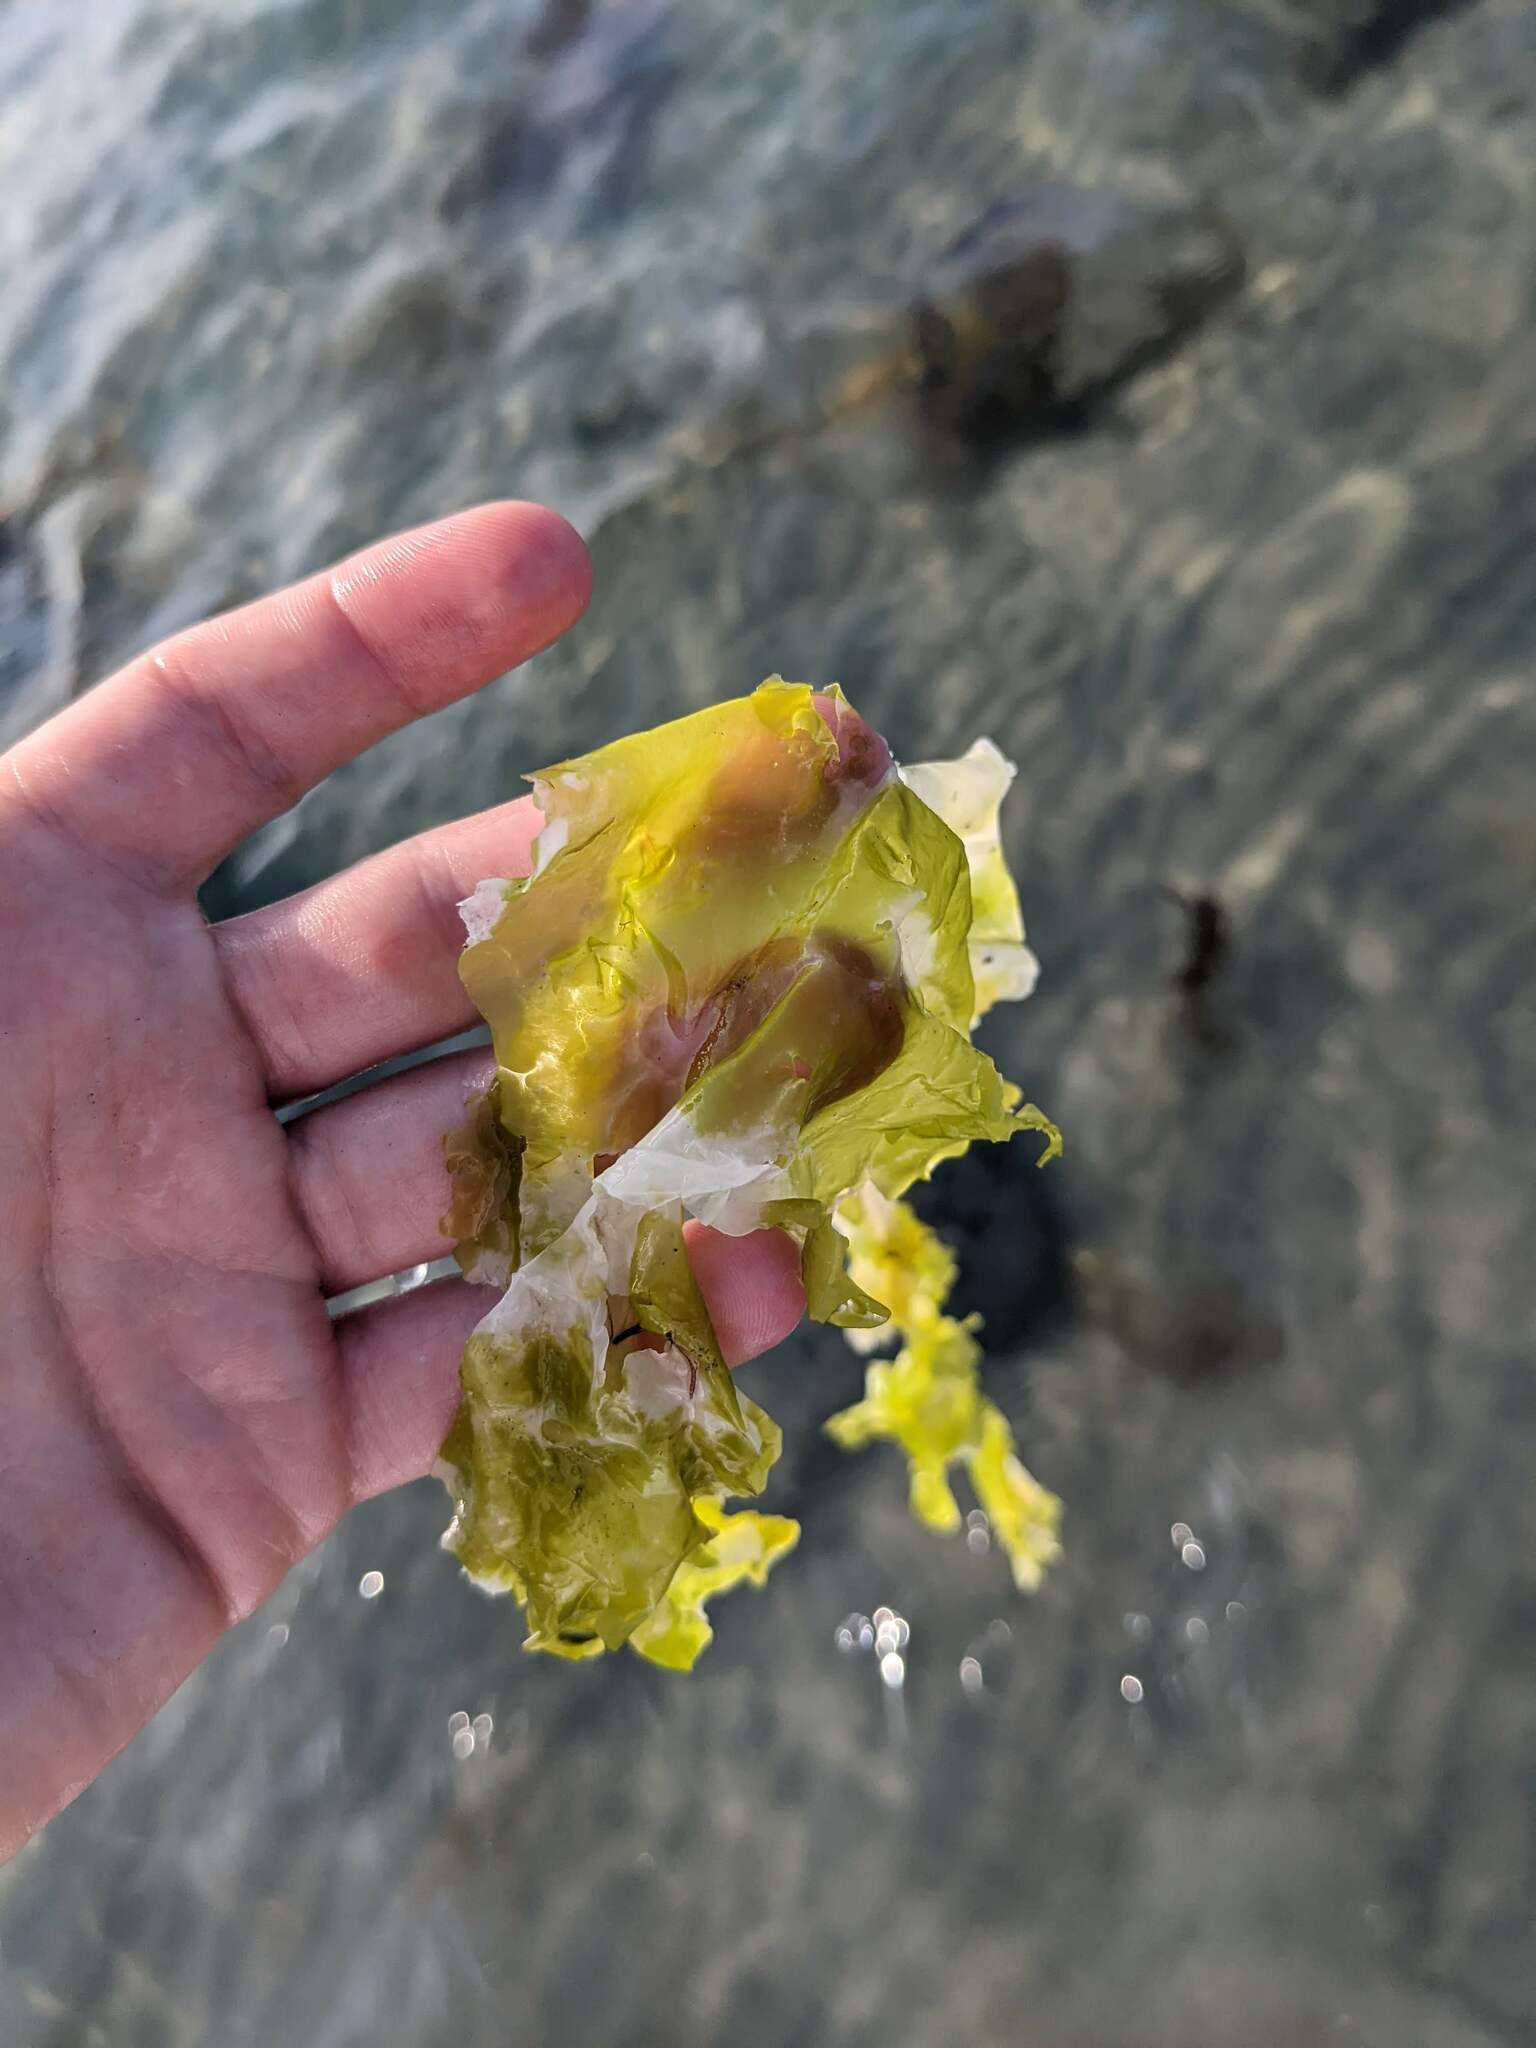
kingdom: Plantae
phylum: Chlorophyta
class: Ulvophyceae
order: Ulvales
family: Ulvaceae
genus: Ulva
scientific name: Ulva lactuca
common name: Sea lettuce
